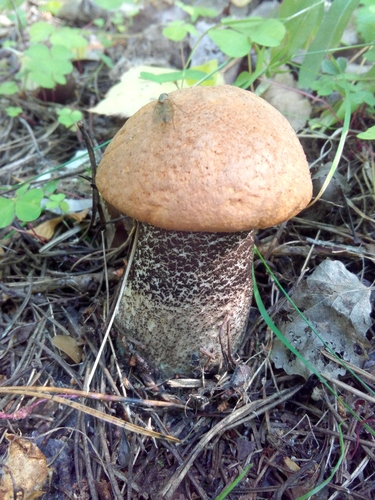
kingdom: Fungi
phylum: Basidiomycota
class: Agaricomycetes
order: Boletales
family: Boletaceae
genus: Leccinum
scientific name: Leccinum versipelle
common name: Orange birch bolete
